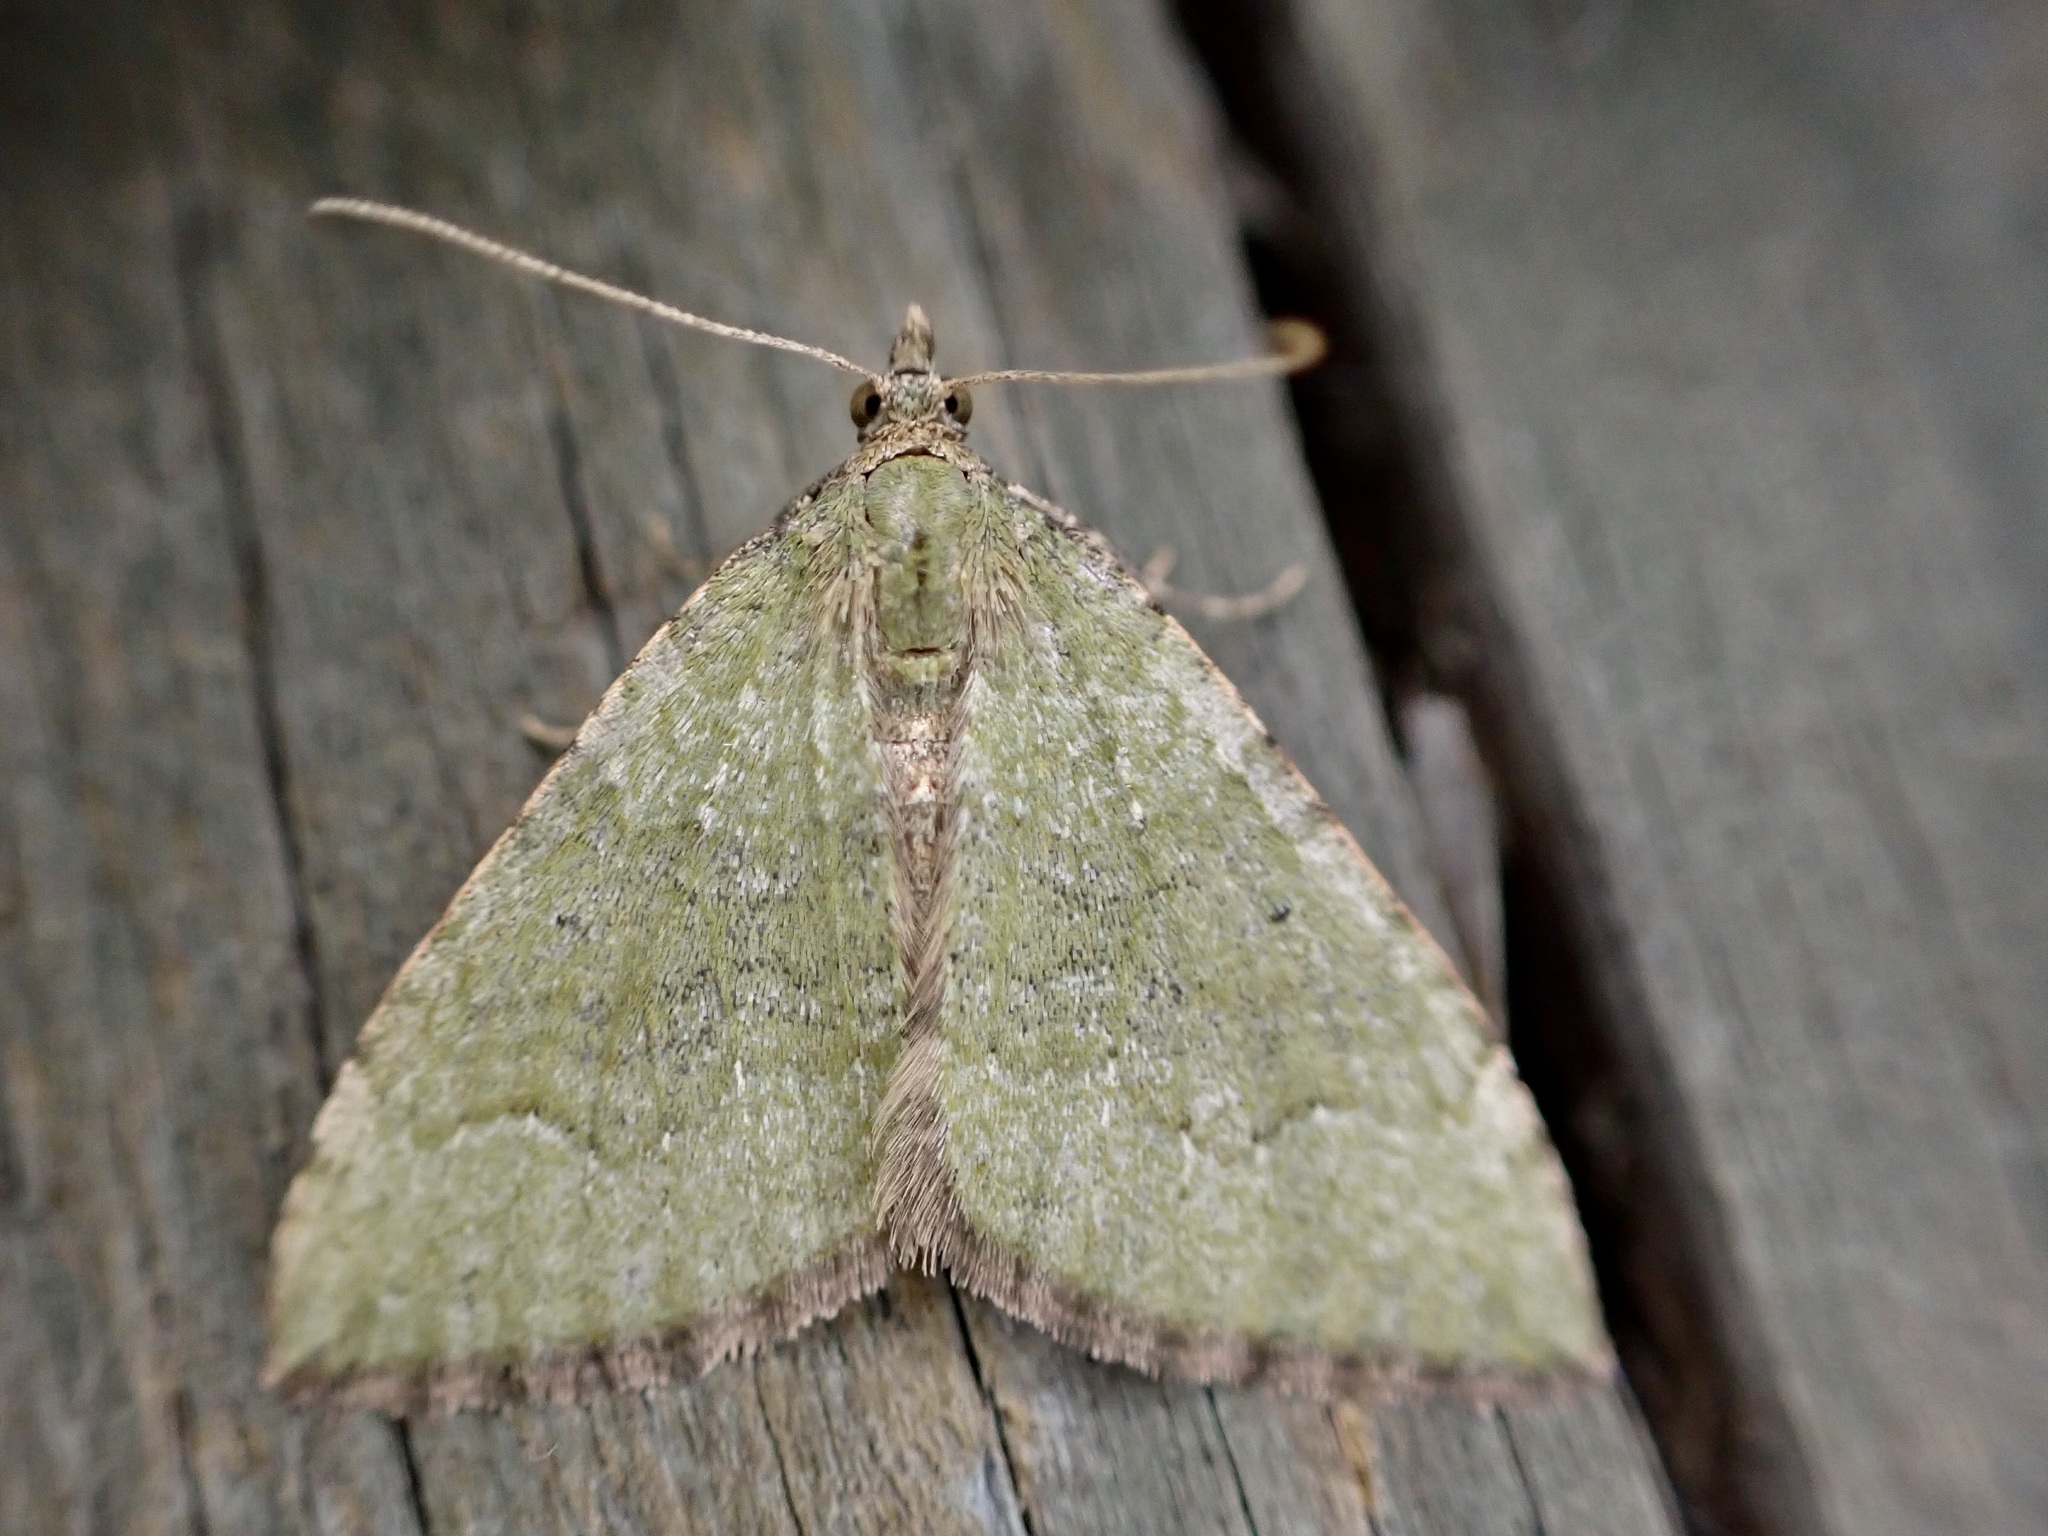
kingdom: Animalia
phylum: Arthropoda
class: Insecta
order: Lepidoptera
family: Geometridae
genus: Epyaxa
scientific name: Epyaxa rosearia
